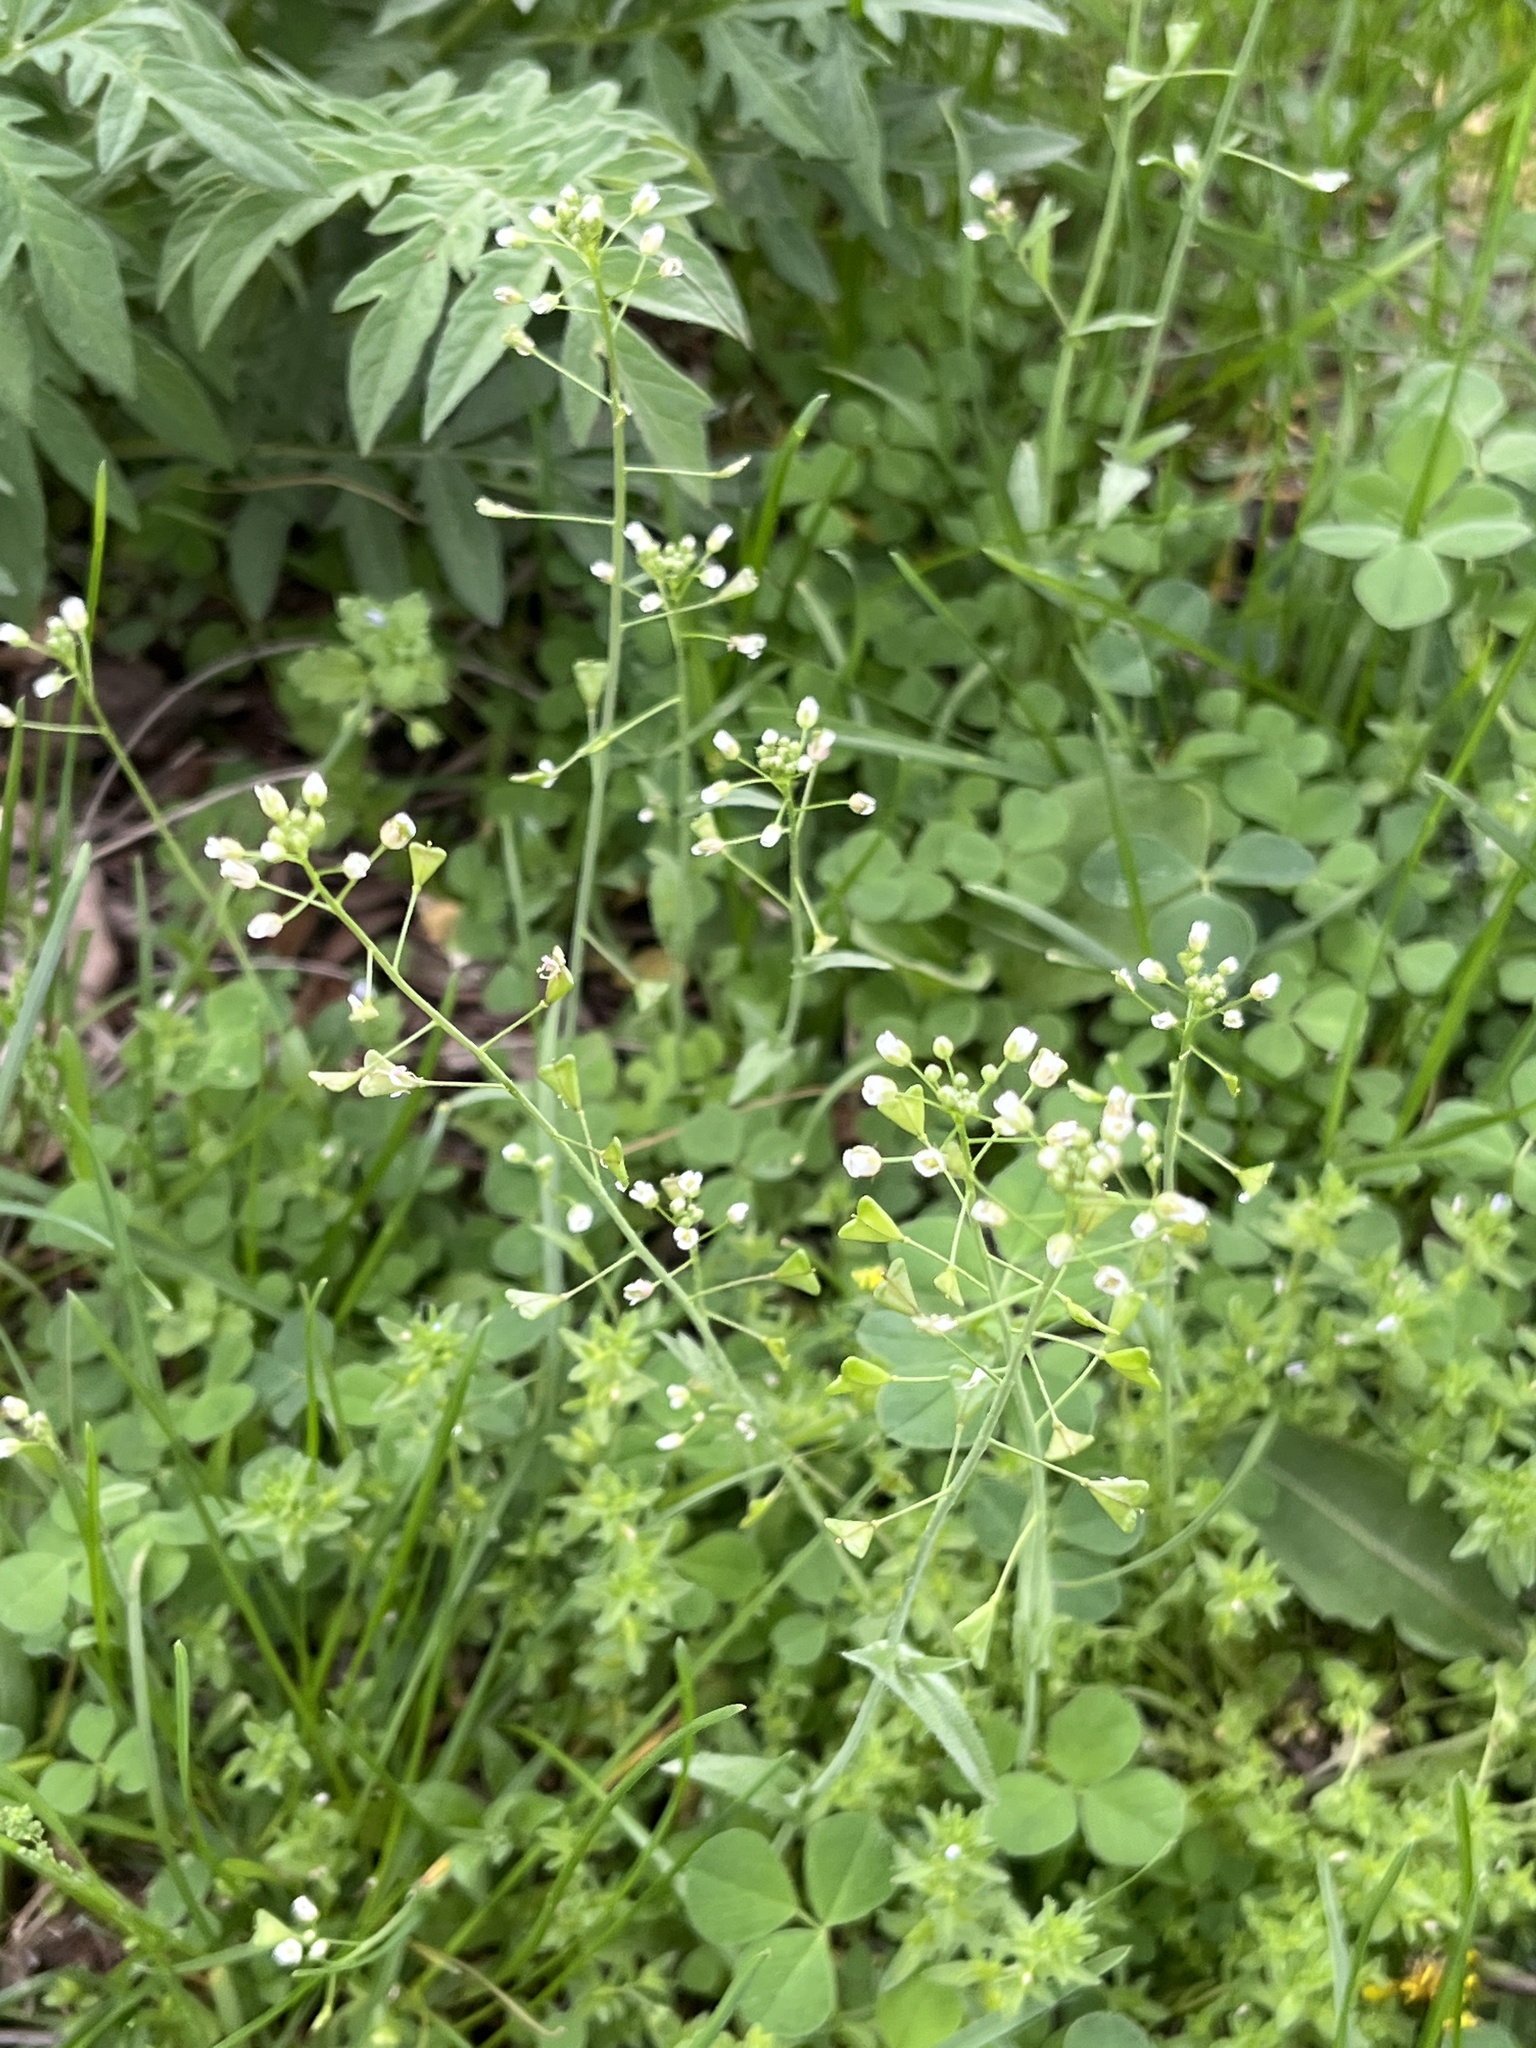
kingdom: Plantae
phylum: Tracheophyta
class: Magnoliopsida
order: Brassicales
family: Brassicaceae
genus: Capsella
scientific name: Capsella bursa-pastoris
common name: Shepherd's purse
